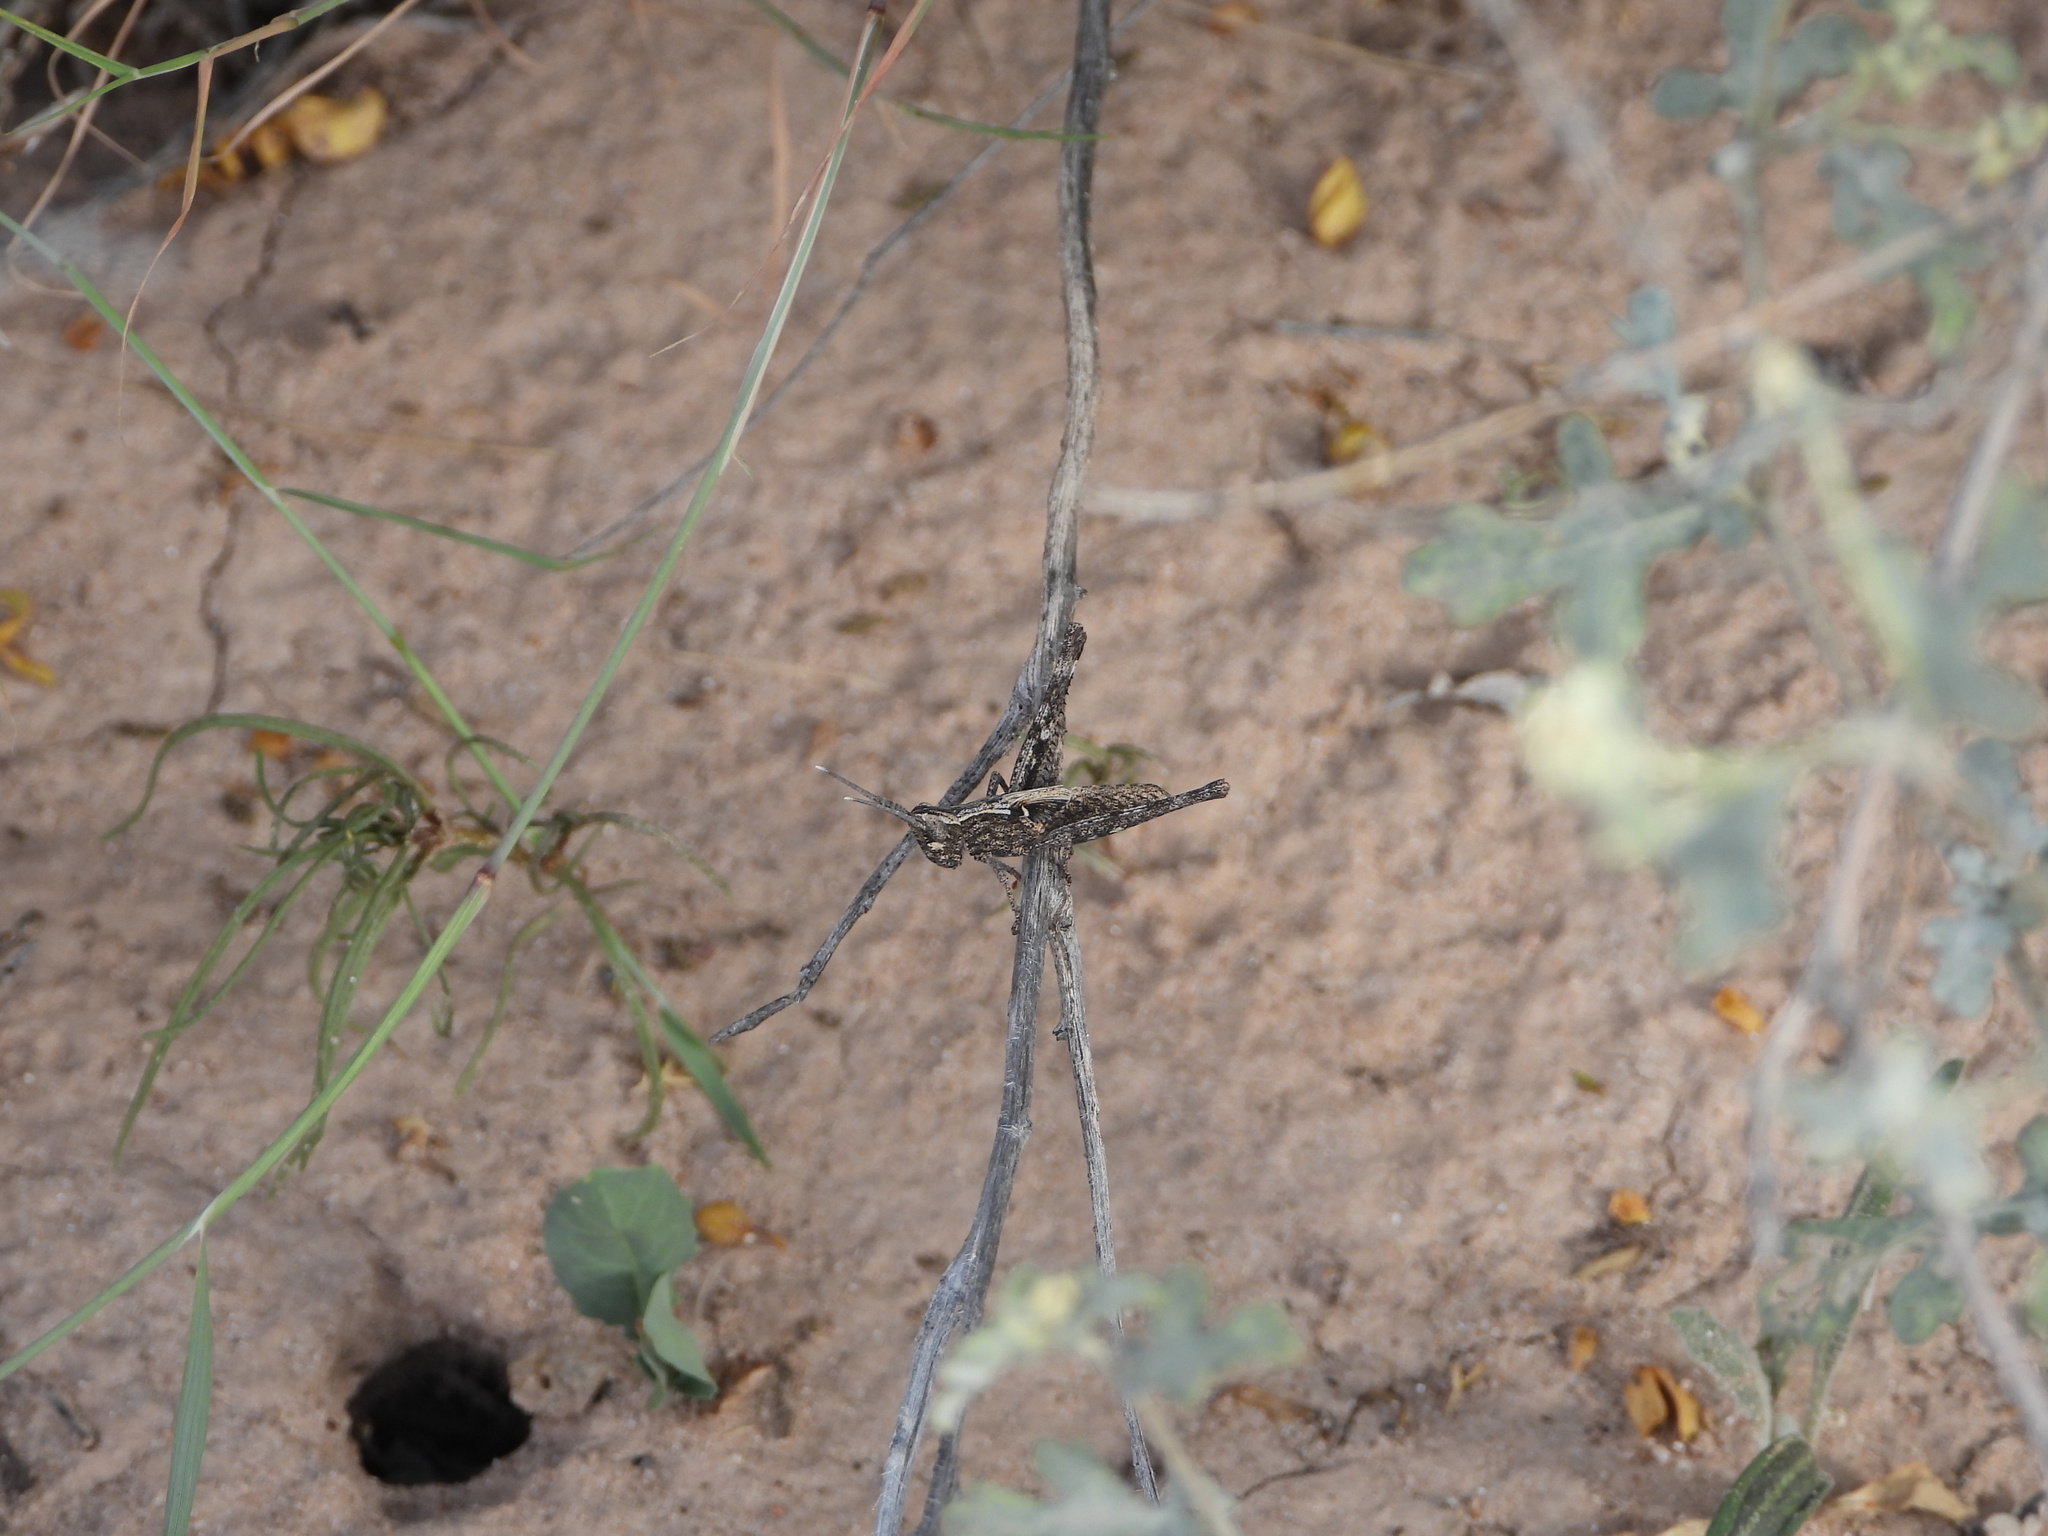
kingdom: Animalia
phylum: Arthropoda
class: Insecta
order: Orthoptera
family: Acrididae
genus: Acantherus
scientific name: Acantherus piperatus
